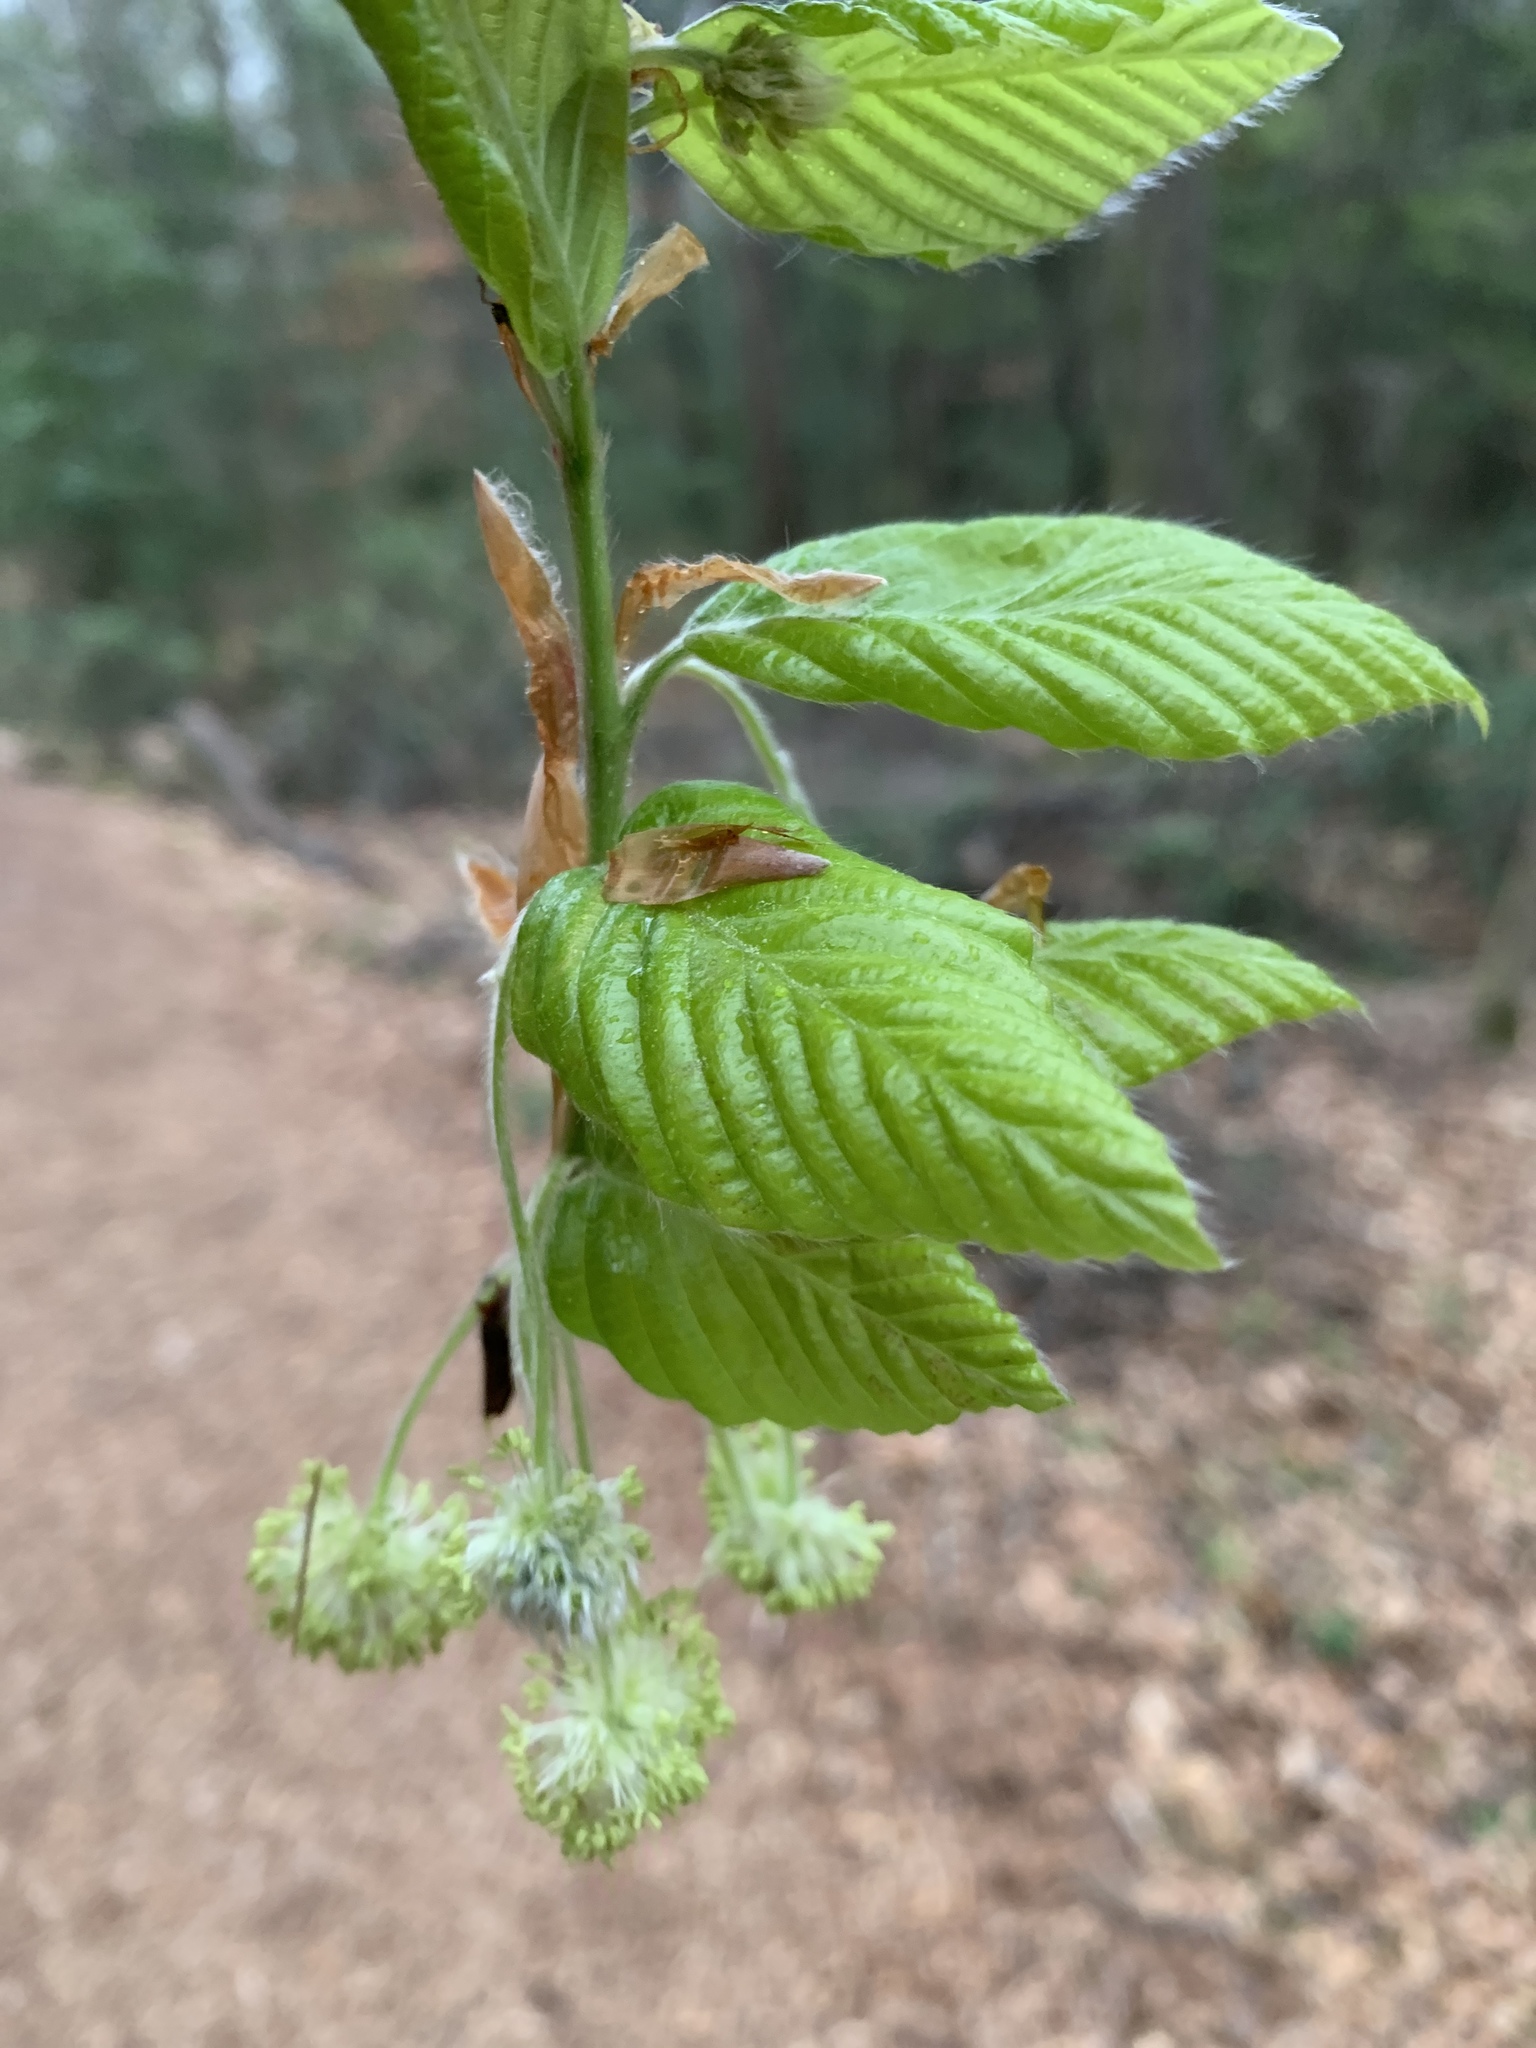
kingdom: Plantae
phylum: Tracheophyta
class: Magnoliopsida
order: Fagales
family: Fagaceae
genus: Fagus
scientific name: Fagus grandifolia
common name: American beech
